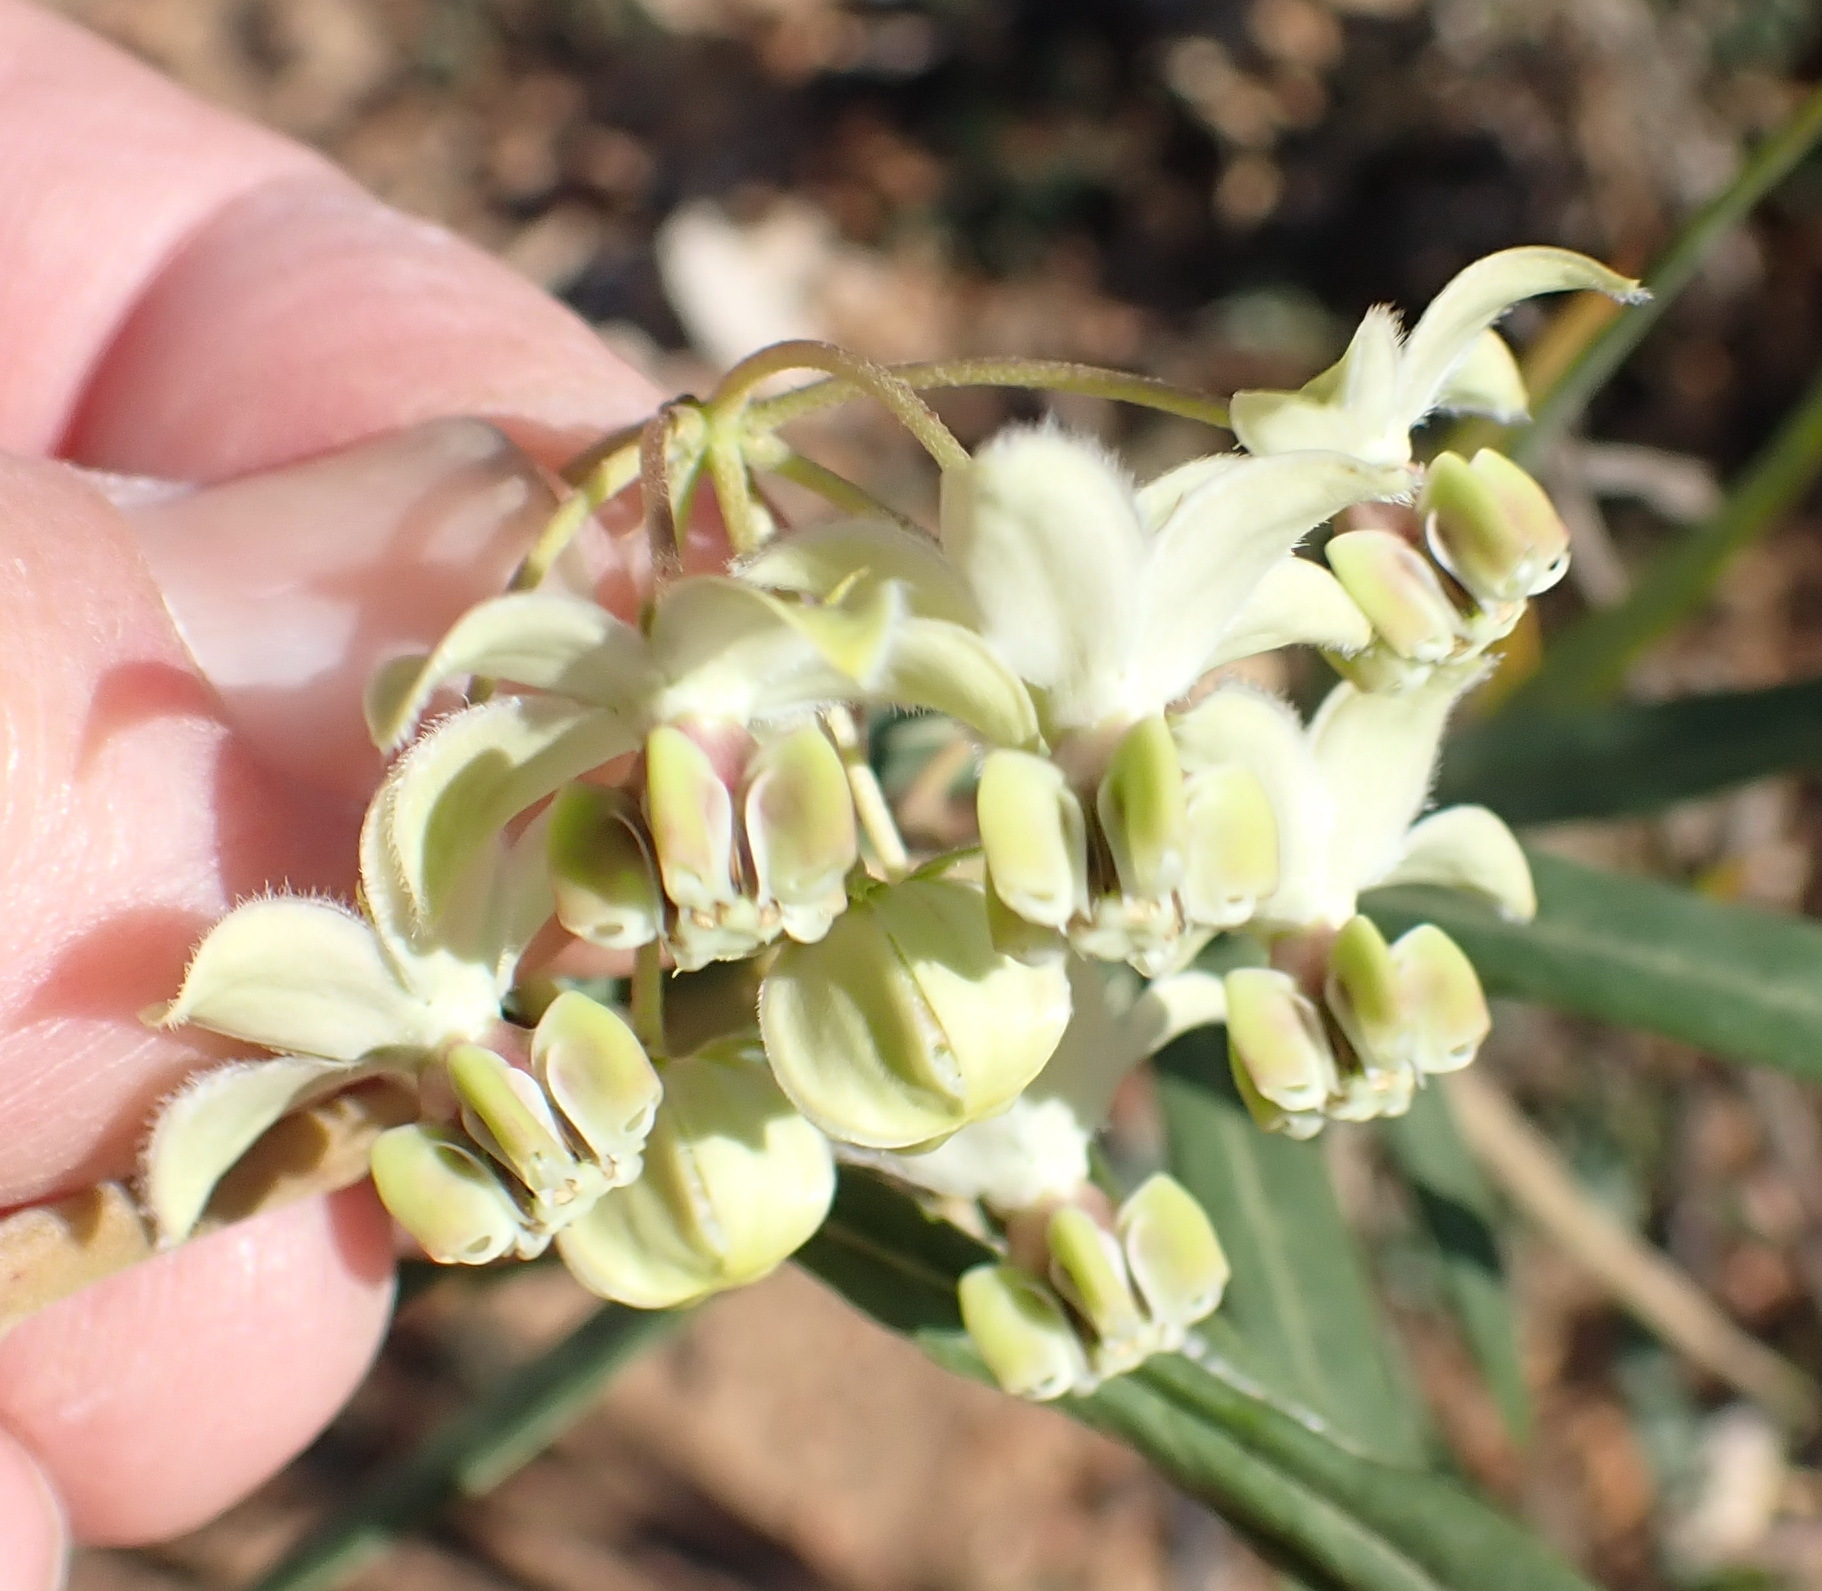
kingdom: Plantae
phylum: Tracheophyta
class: Magnoliopsida
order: Gentianales
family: Apocynaceae
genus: Gomphocarpus
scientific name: Gomphocarpus fruticosus
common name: Milkweed
